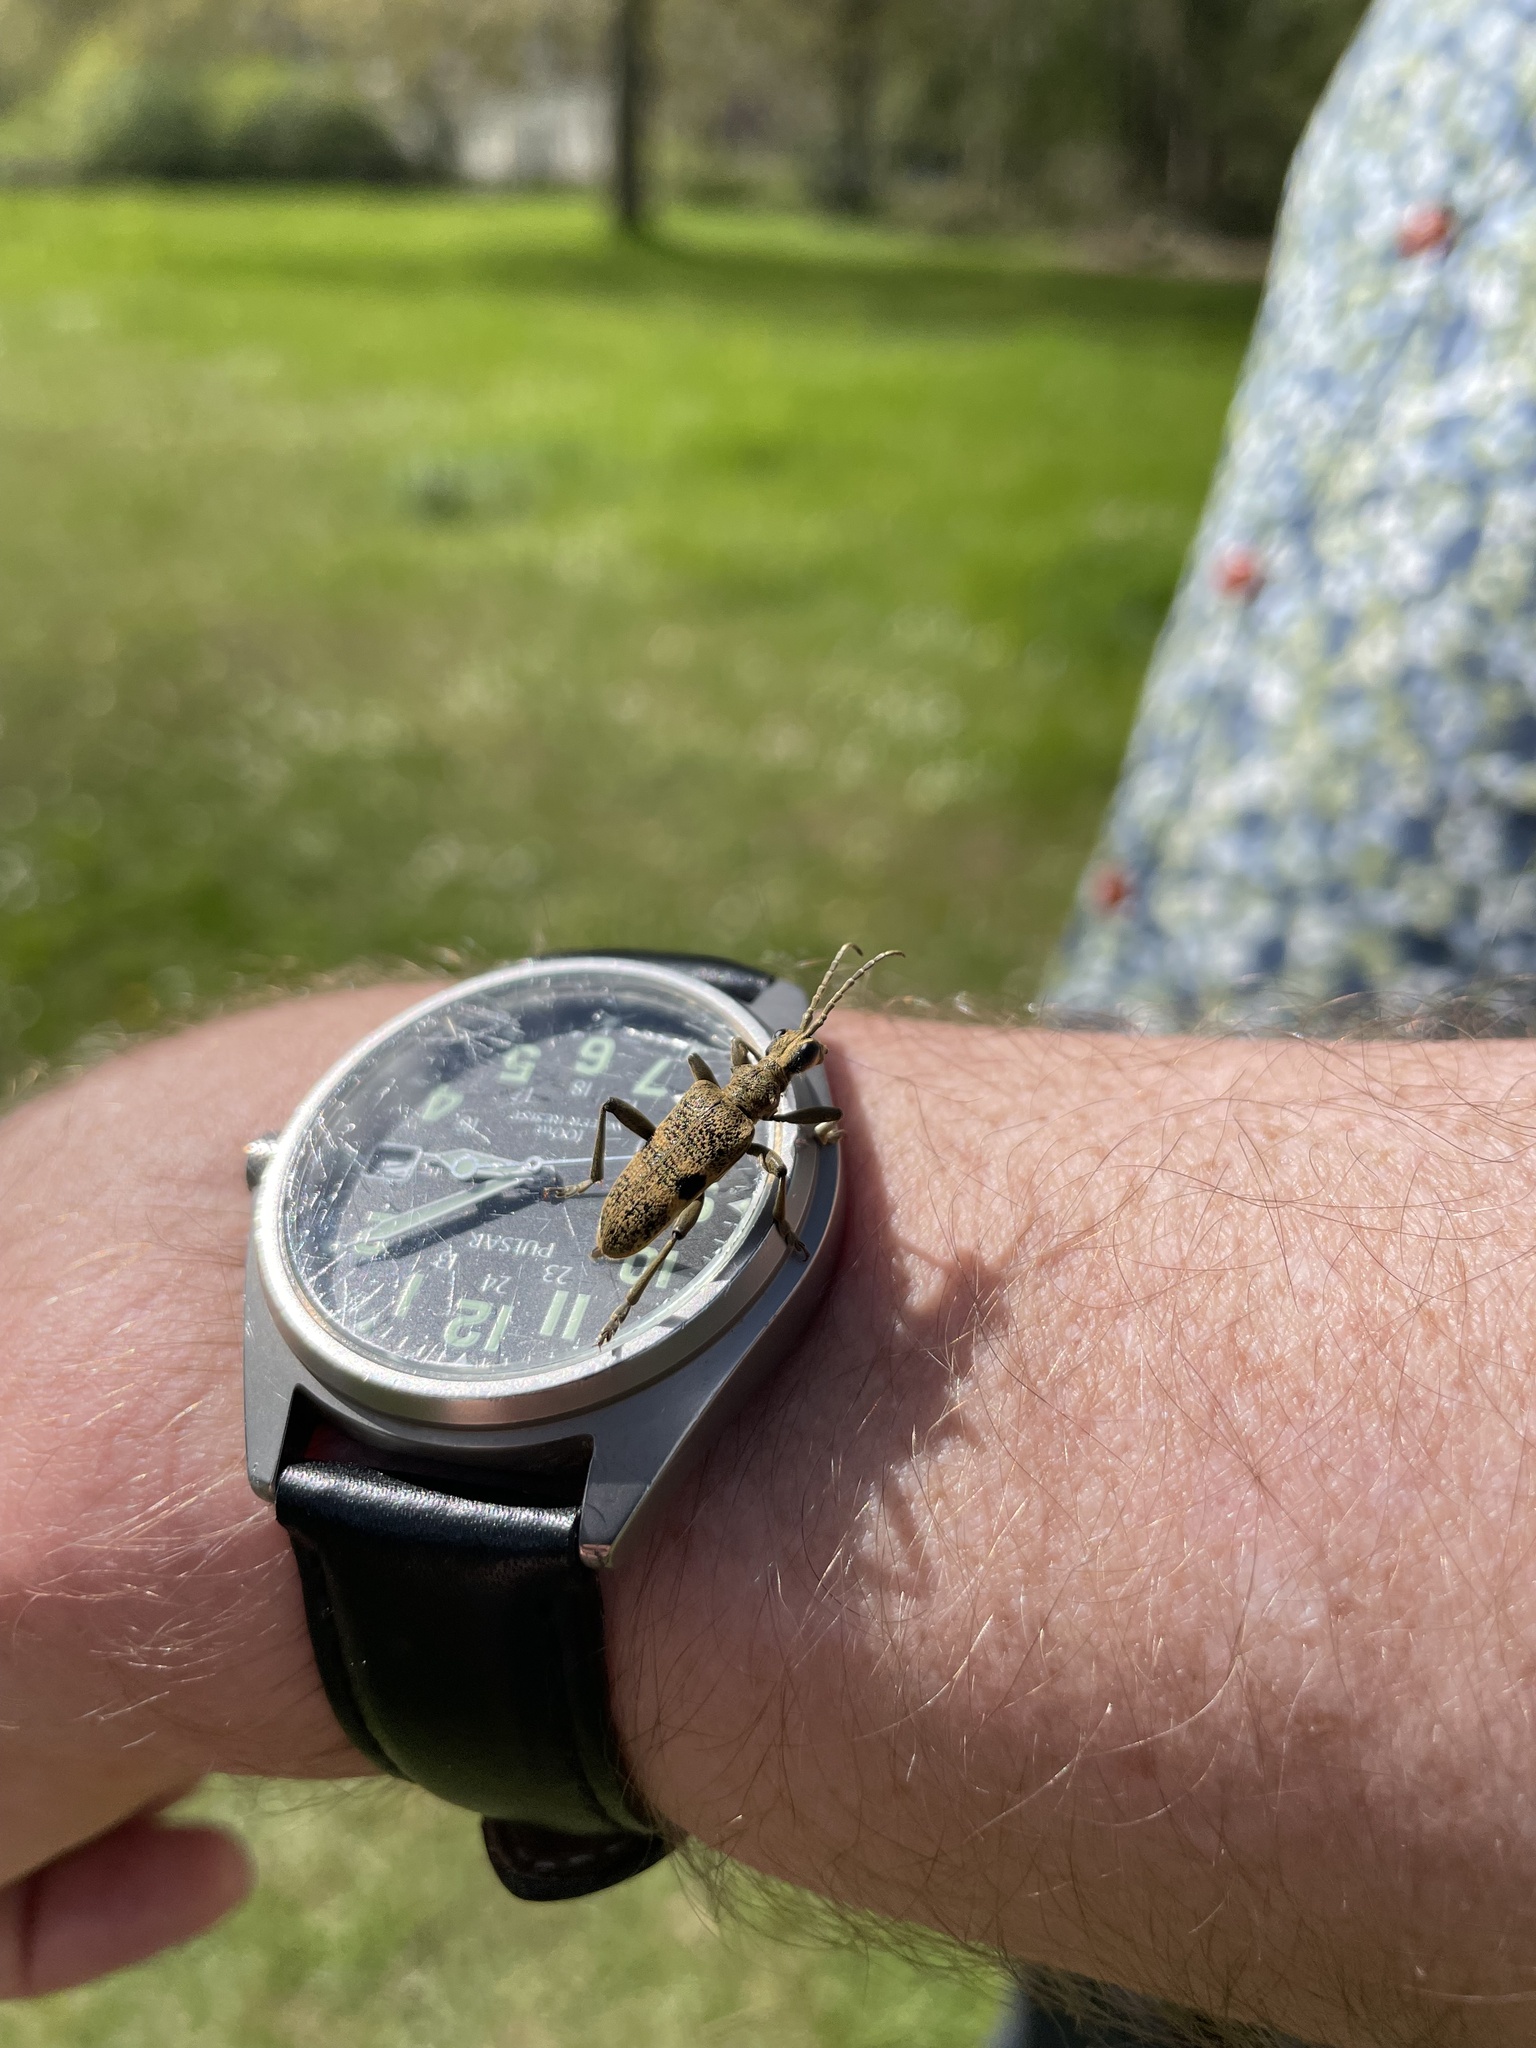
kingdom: Animalia
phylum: Arthropoda
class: Insecta
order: Coleoptera
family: Cerambycidae
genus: Rhagium
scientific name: Rhagium mordax
